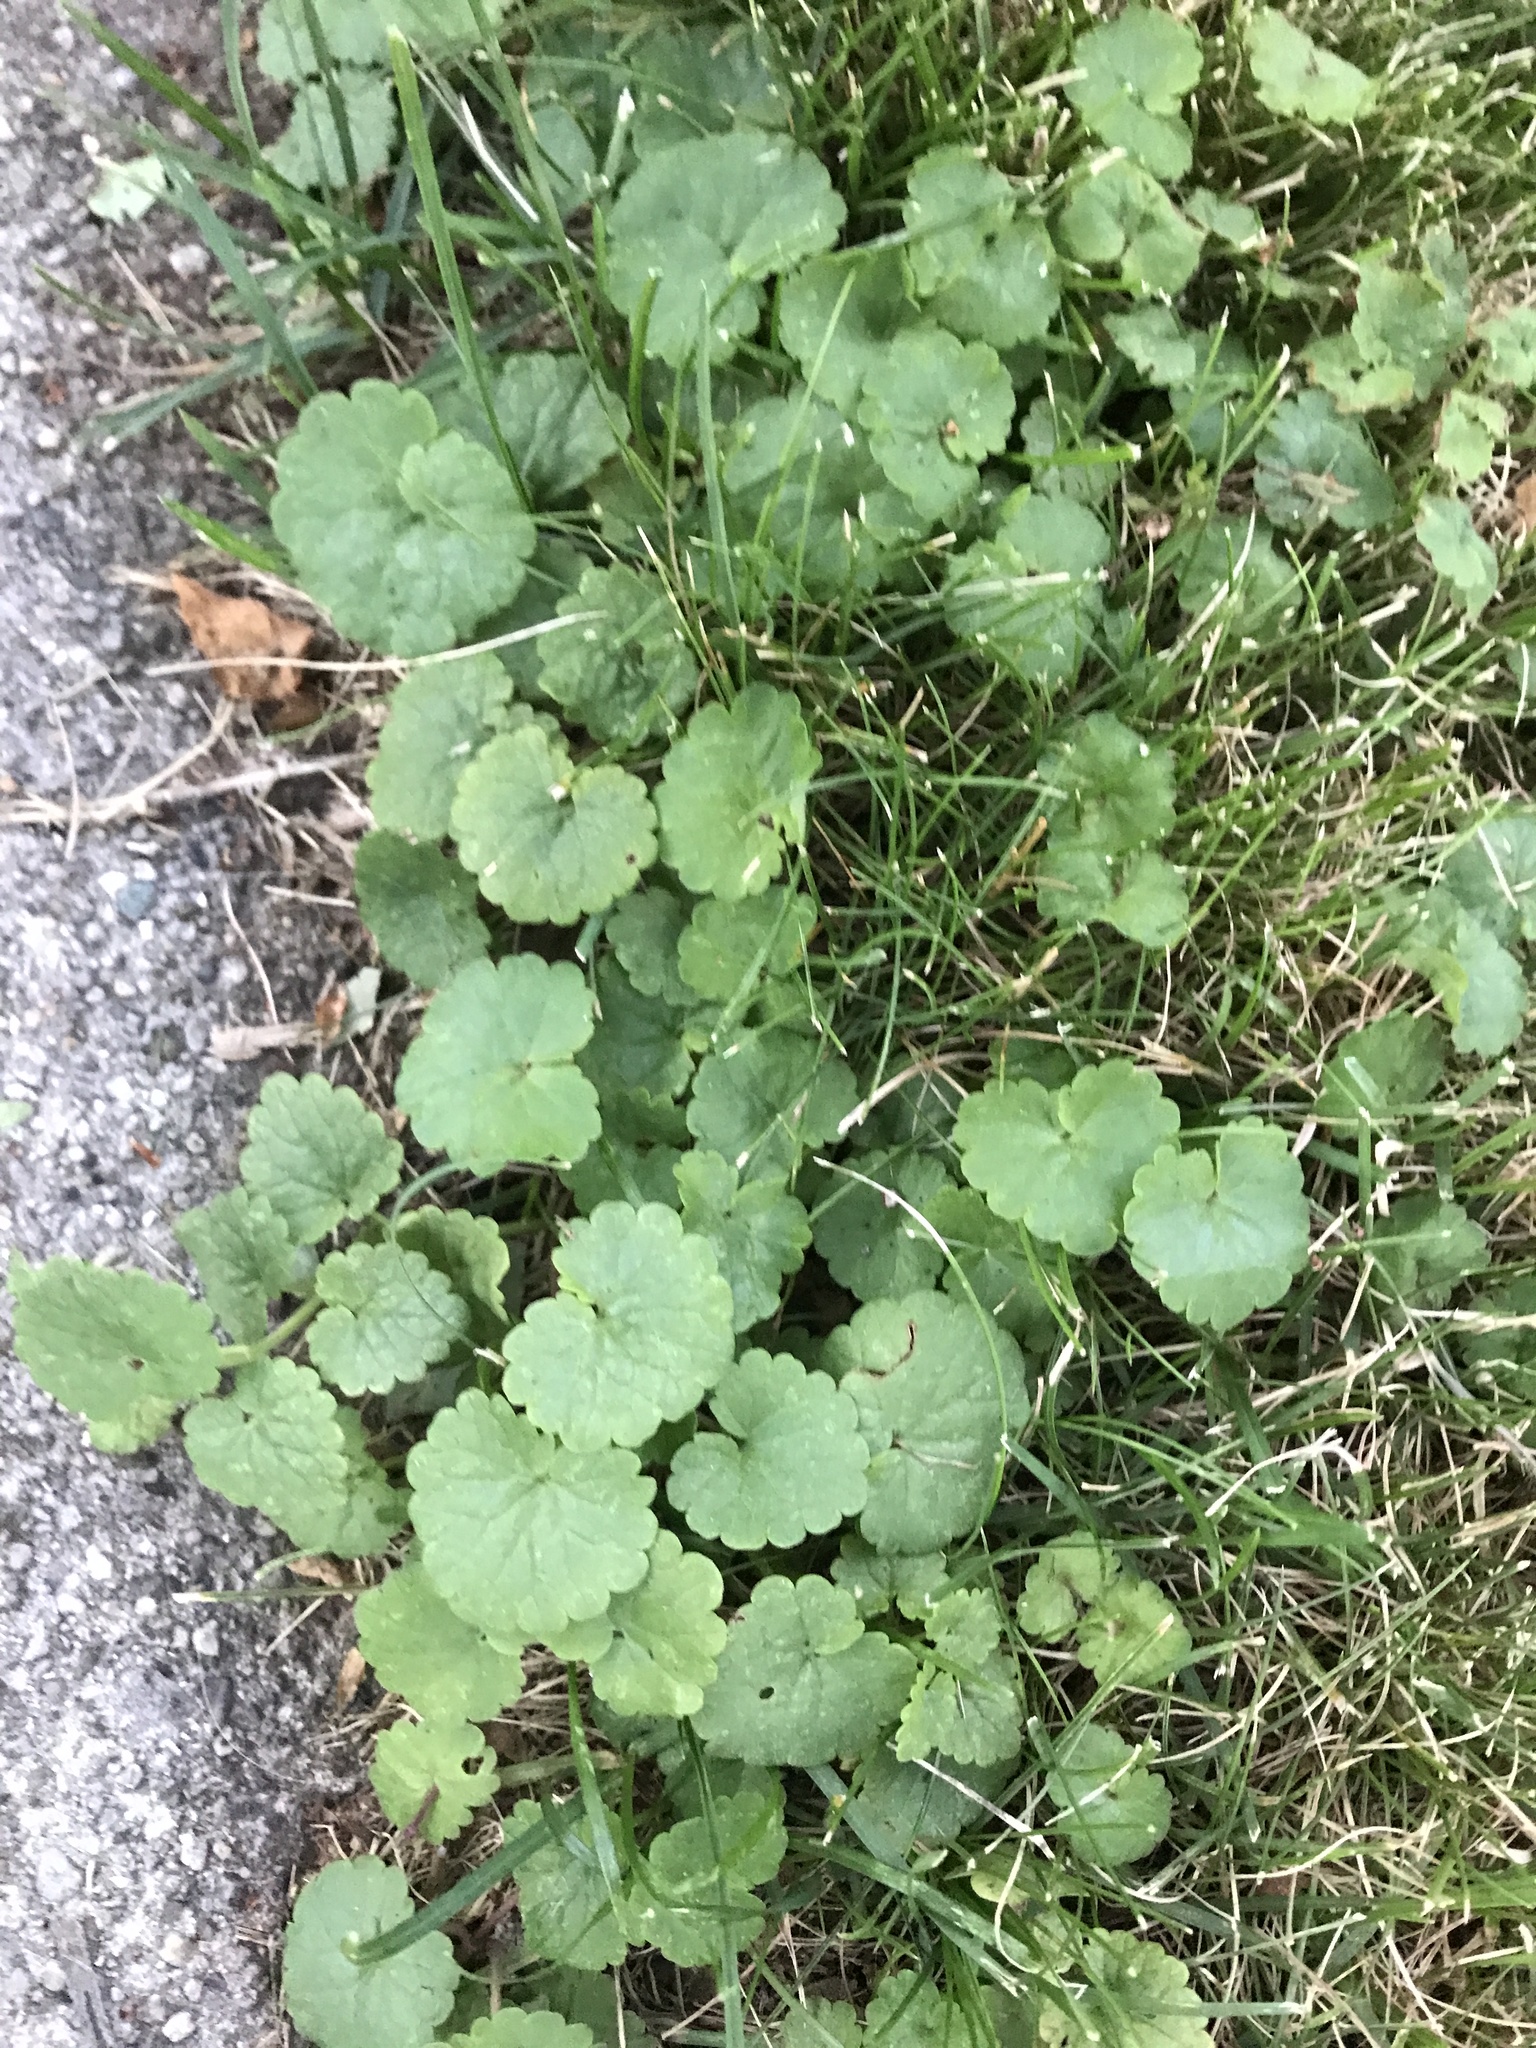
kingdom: Plantae
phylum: Tracheophyta
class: Magnoliopsida
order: Lamiales
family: Lamiaceae
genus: Glechoma
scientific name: Glechoma hederacea
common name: Ground ivy
